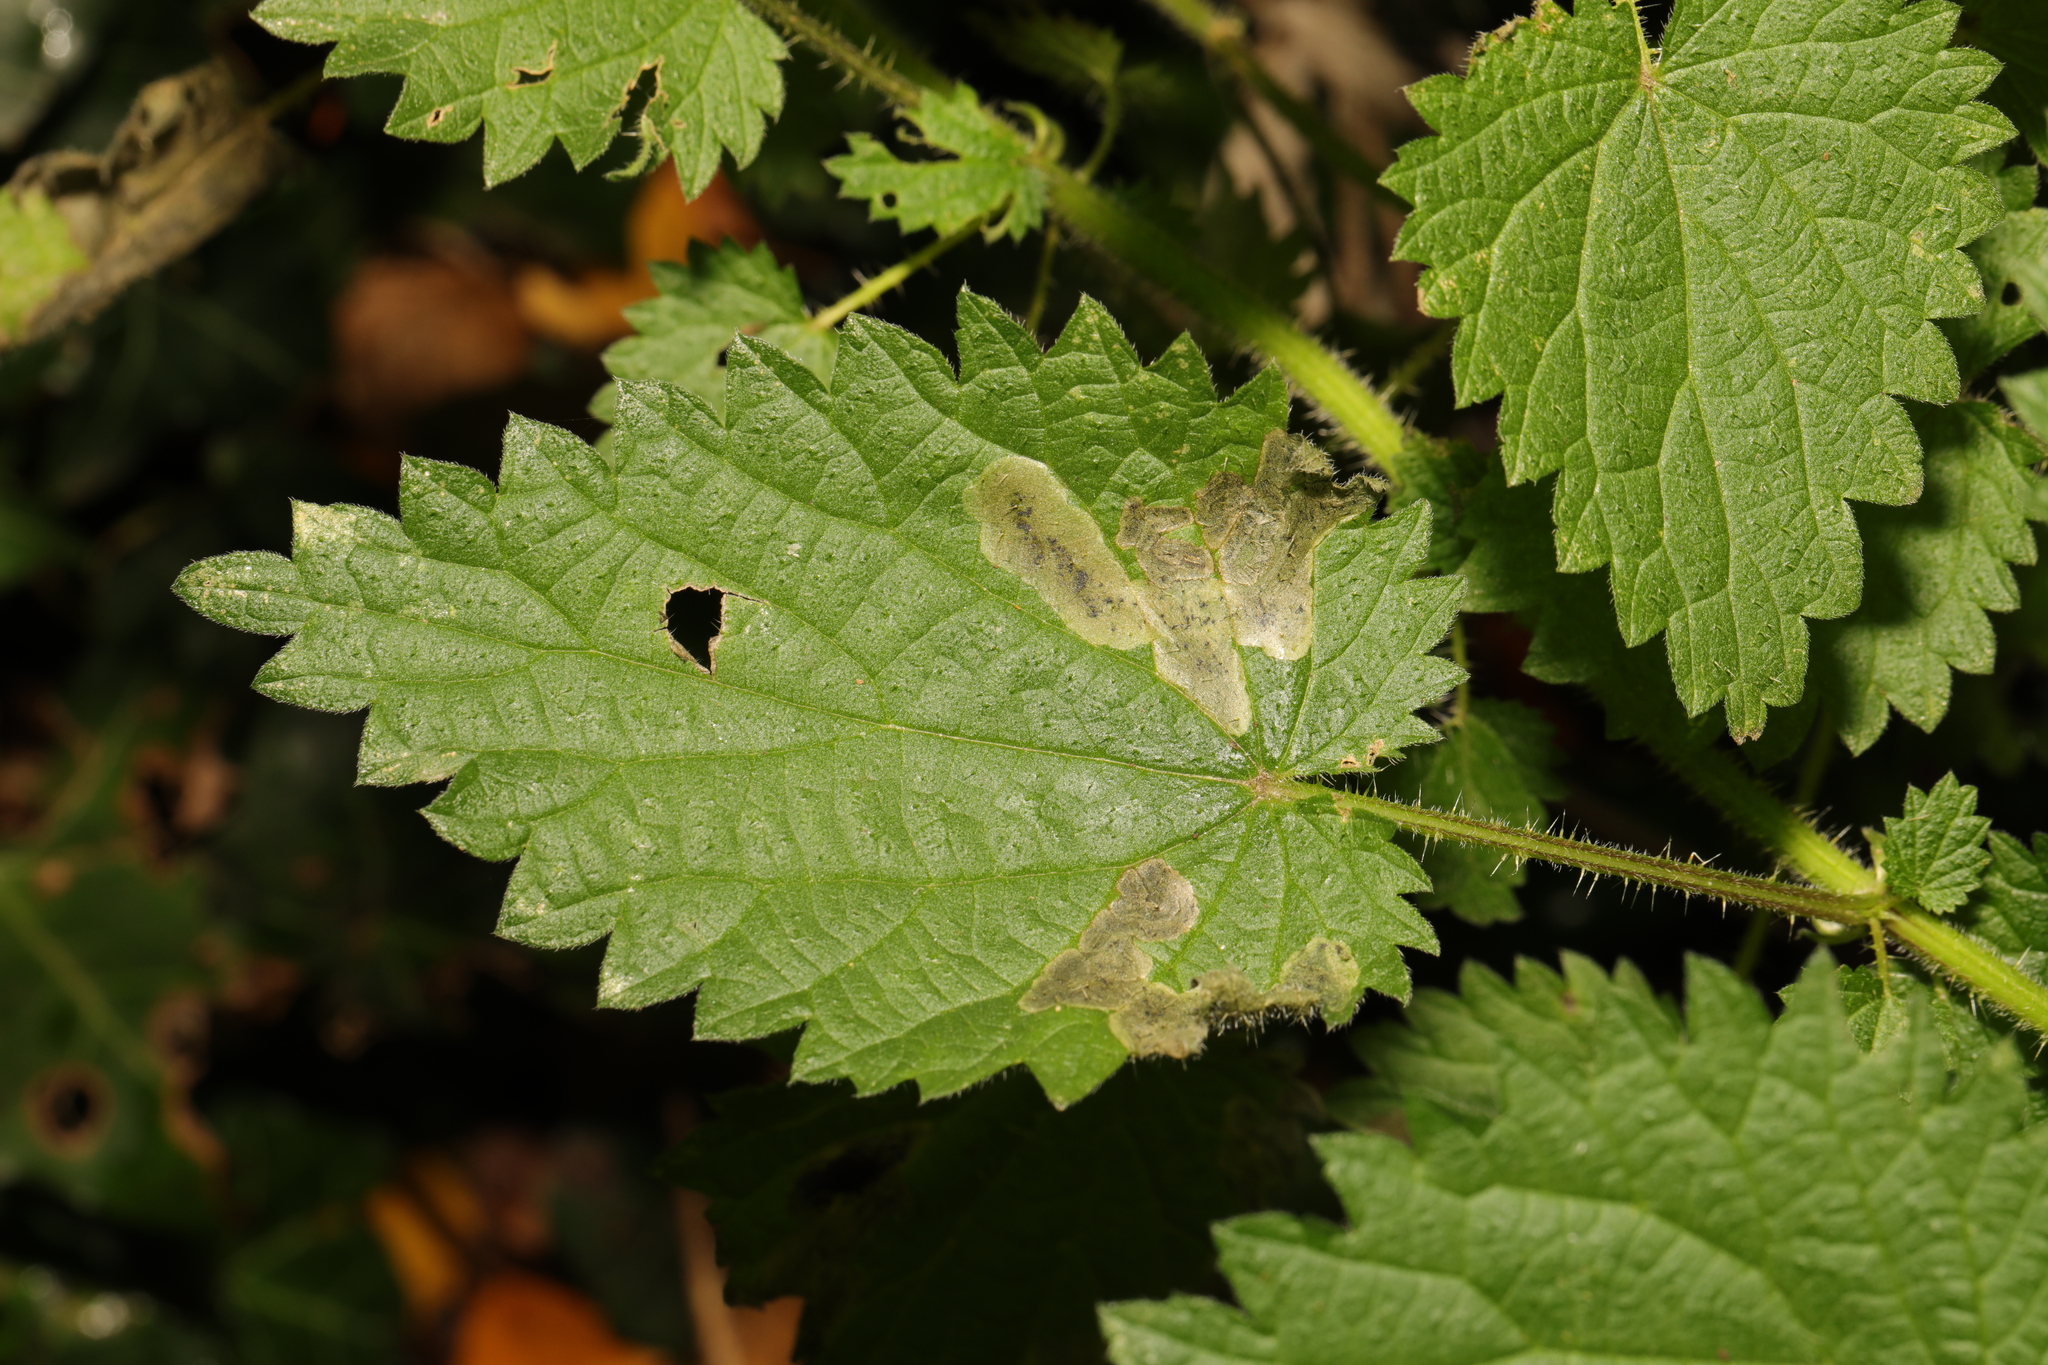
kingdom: Plantae
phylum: Tracheophyta
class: Magnoliopsida
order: Rosales
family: Urticaceae
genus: Urtica
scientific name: Urtica dioica
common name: Common nettle
